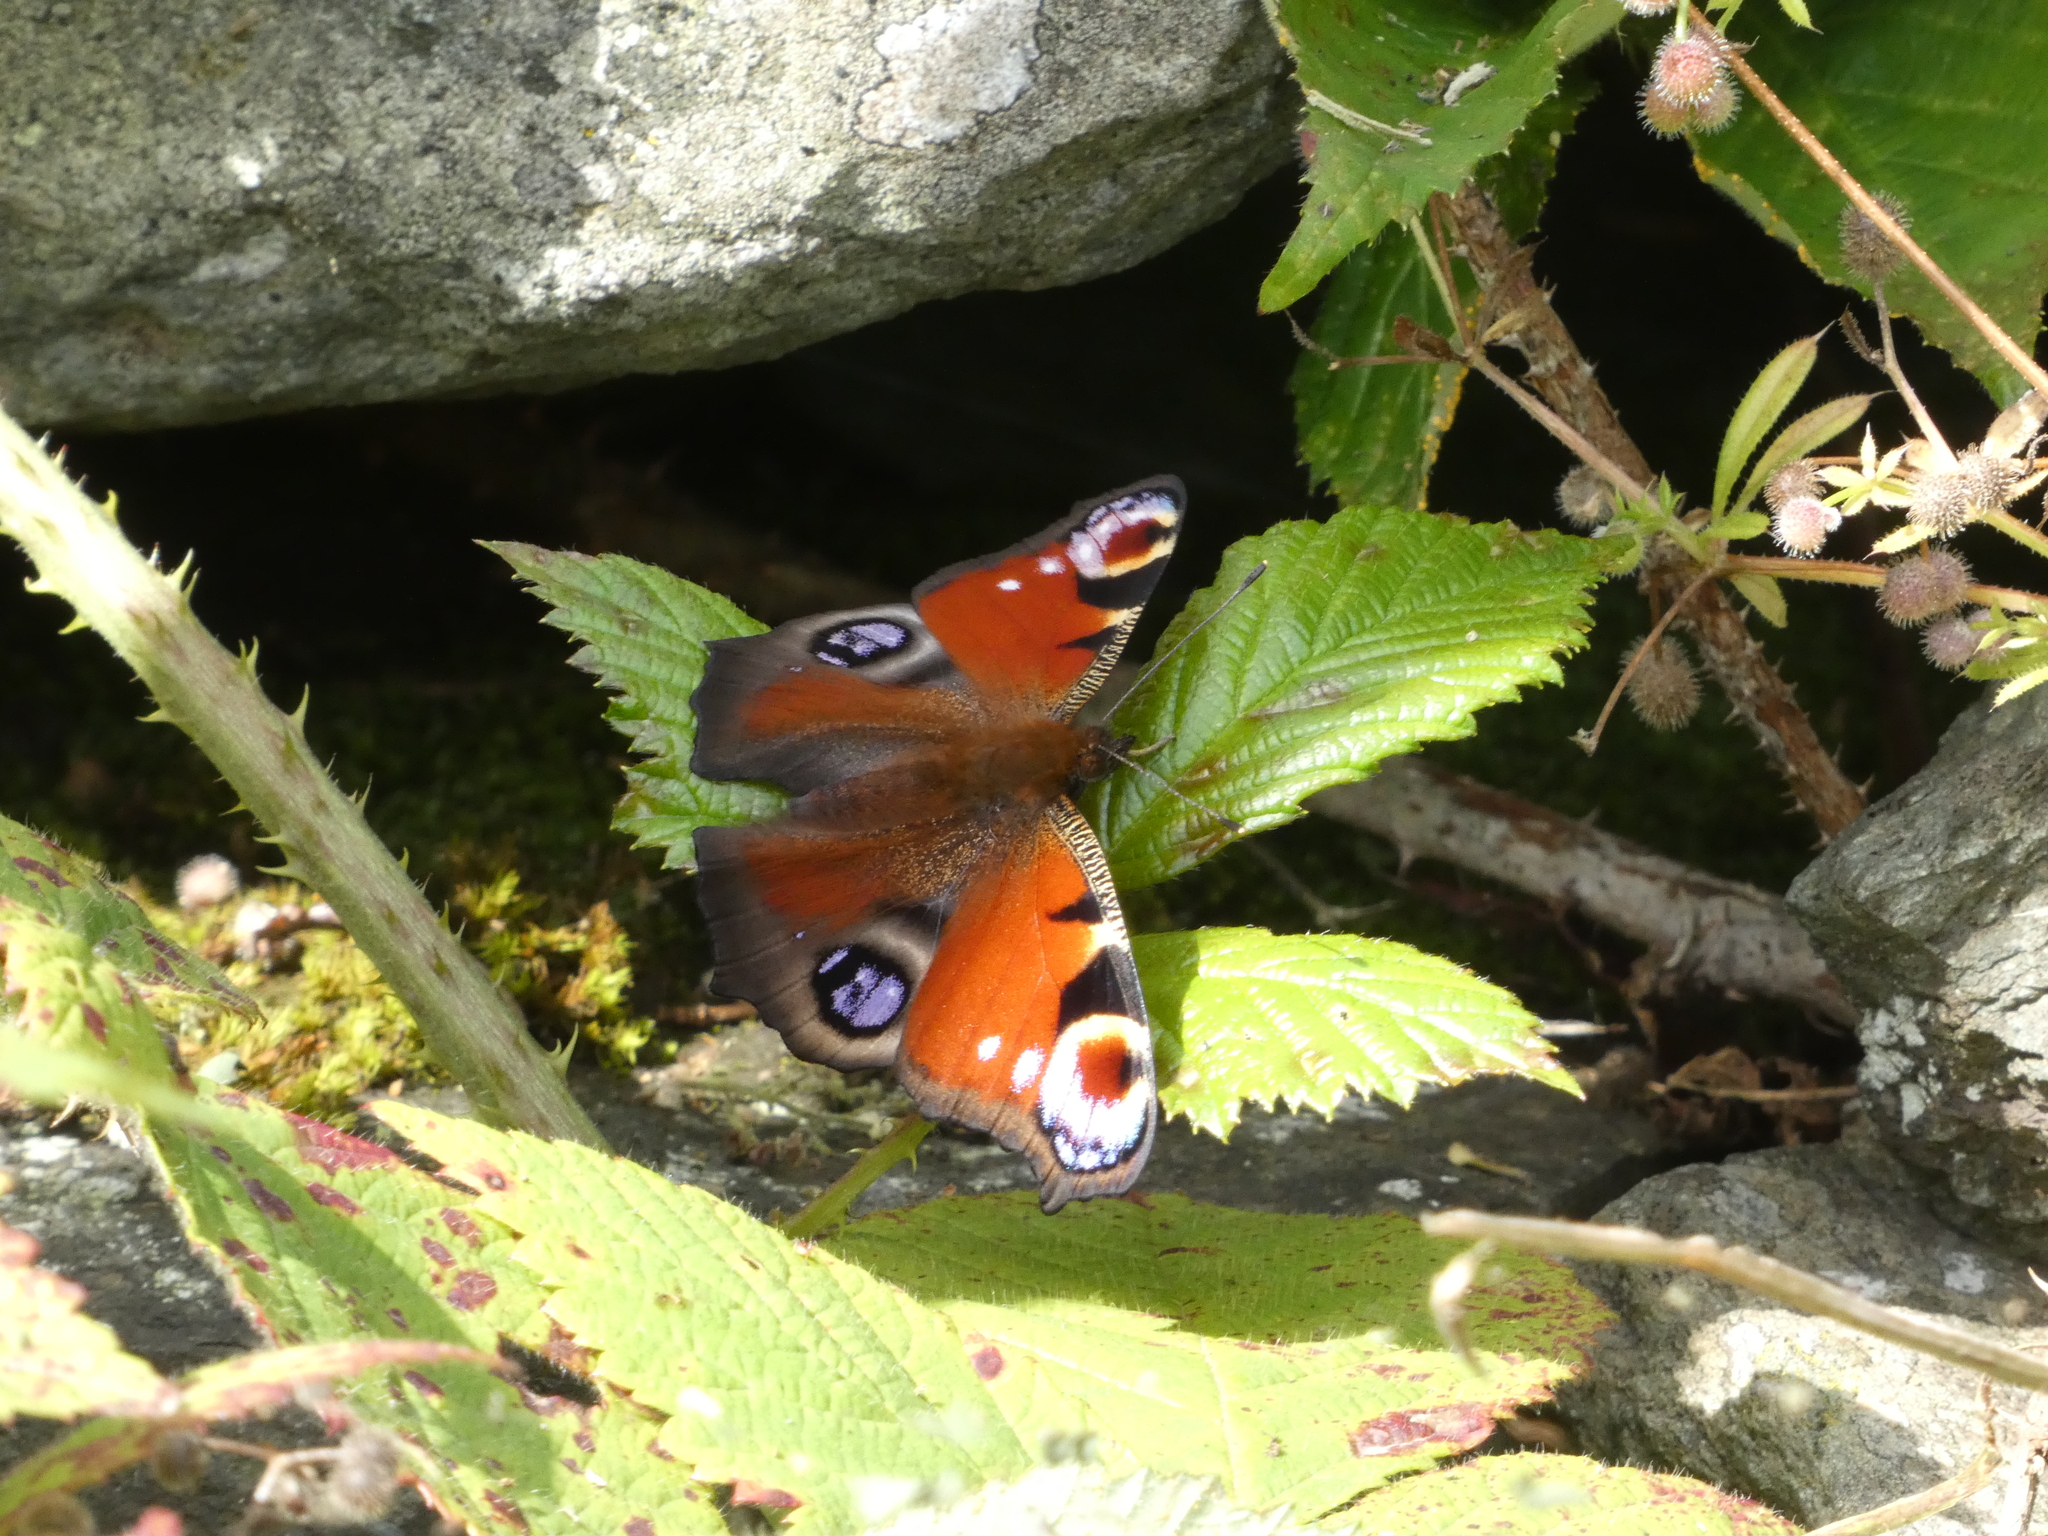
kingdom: Animalia
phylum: Arthropoda
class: Insecta
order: Lepidoptera
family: Nymphalidae
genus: Aglais
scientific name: Aglais io
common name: Peacock
